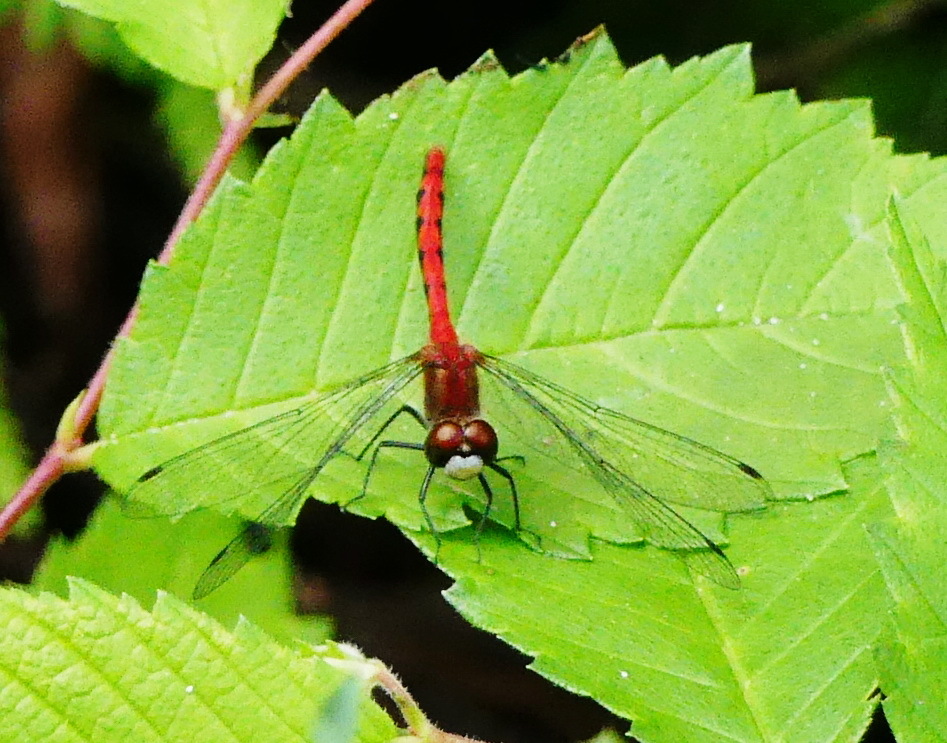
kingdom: Animalia
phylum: Arthropoda
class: Insecta
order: Odonata
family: Libellulidae
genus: Sympetrum
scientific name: Sympetrum obtrusum
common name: White-faced meadowhawk
